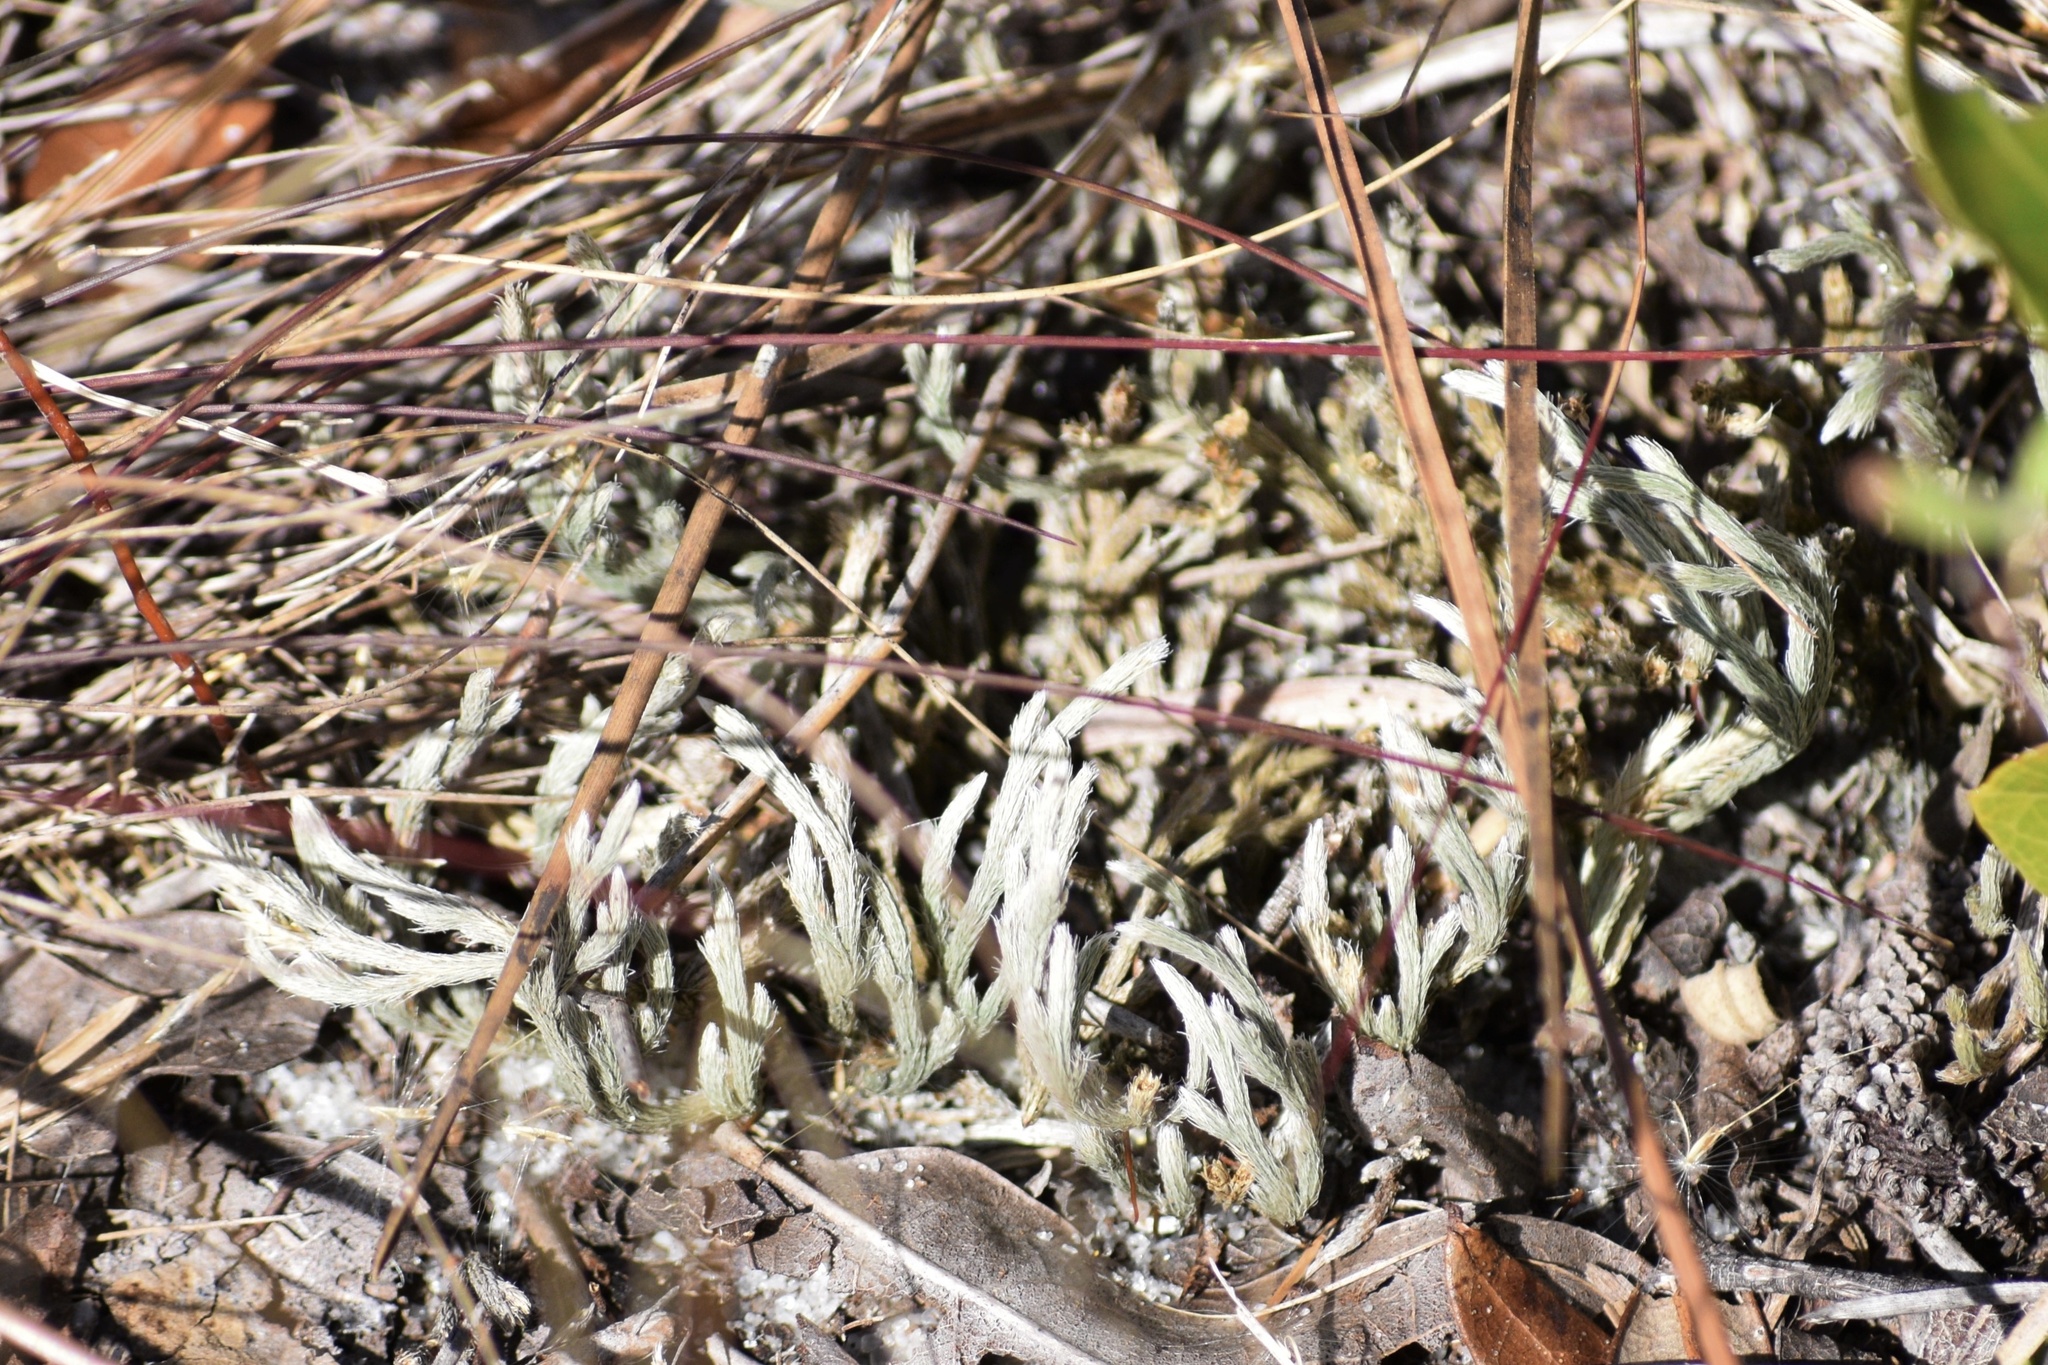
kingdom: Plantae
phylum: Tracheophyta
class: Lycopodiopsida
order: Selaginellales
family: Selaginellaceae
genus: Selaginella
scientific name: Selaginella arenicola
